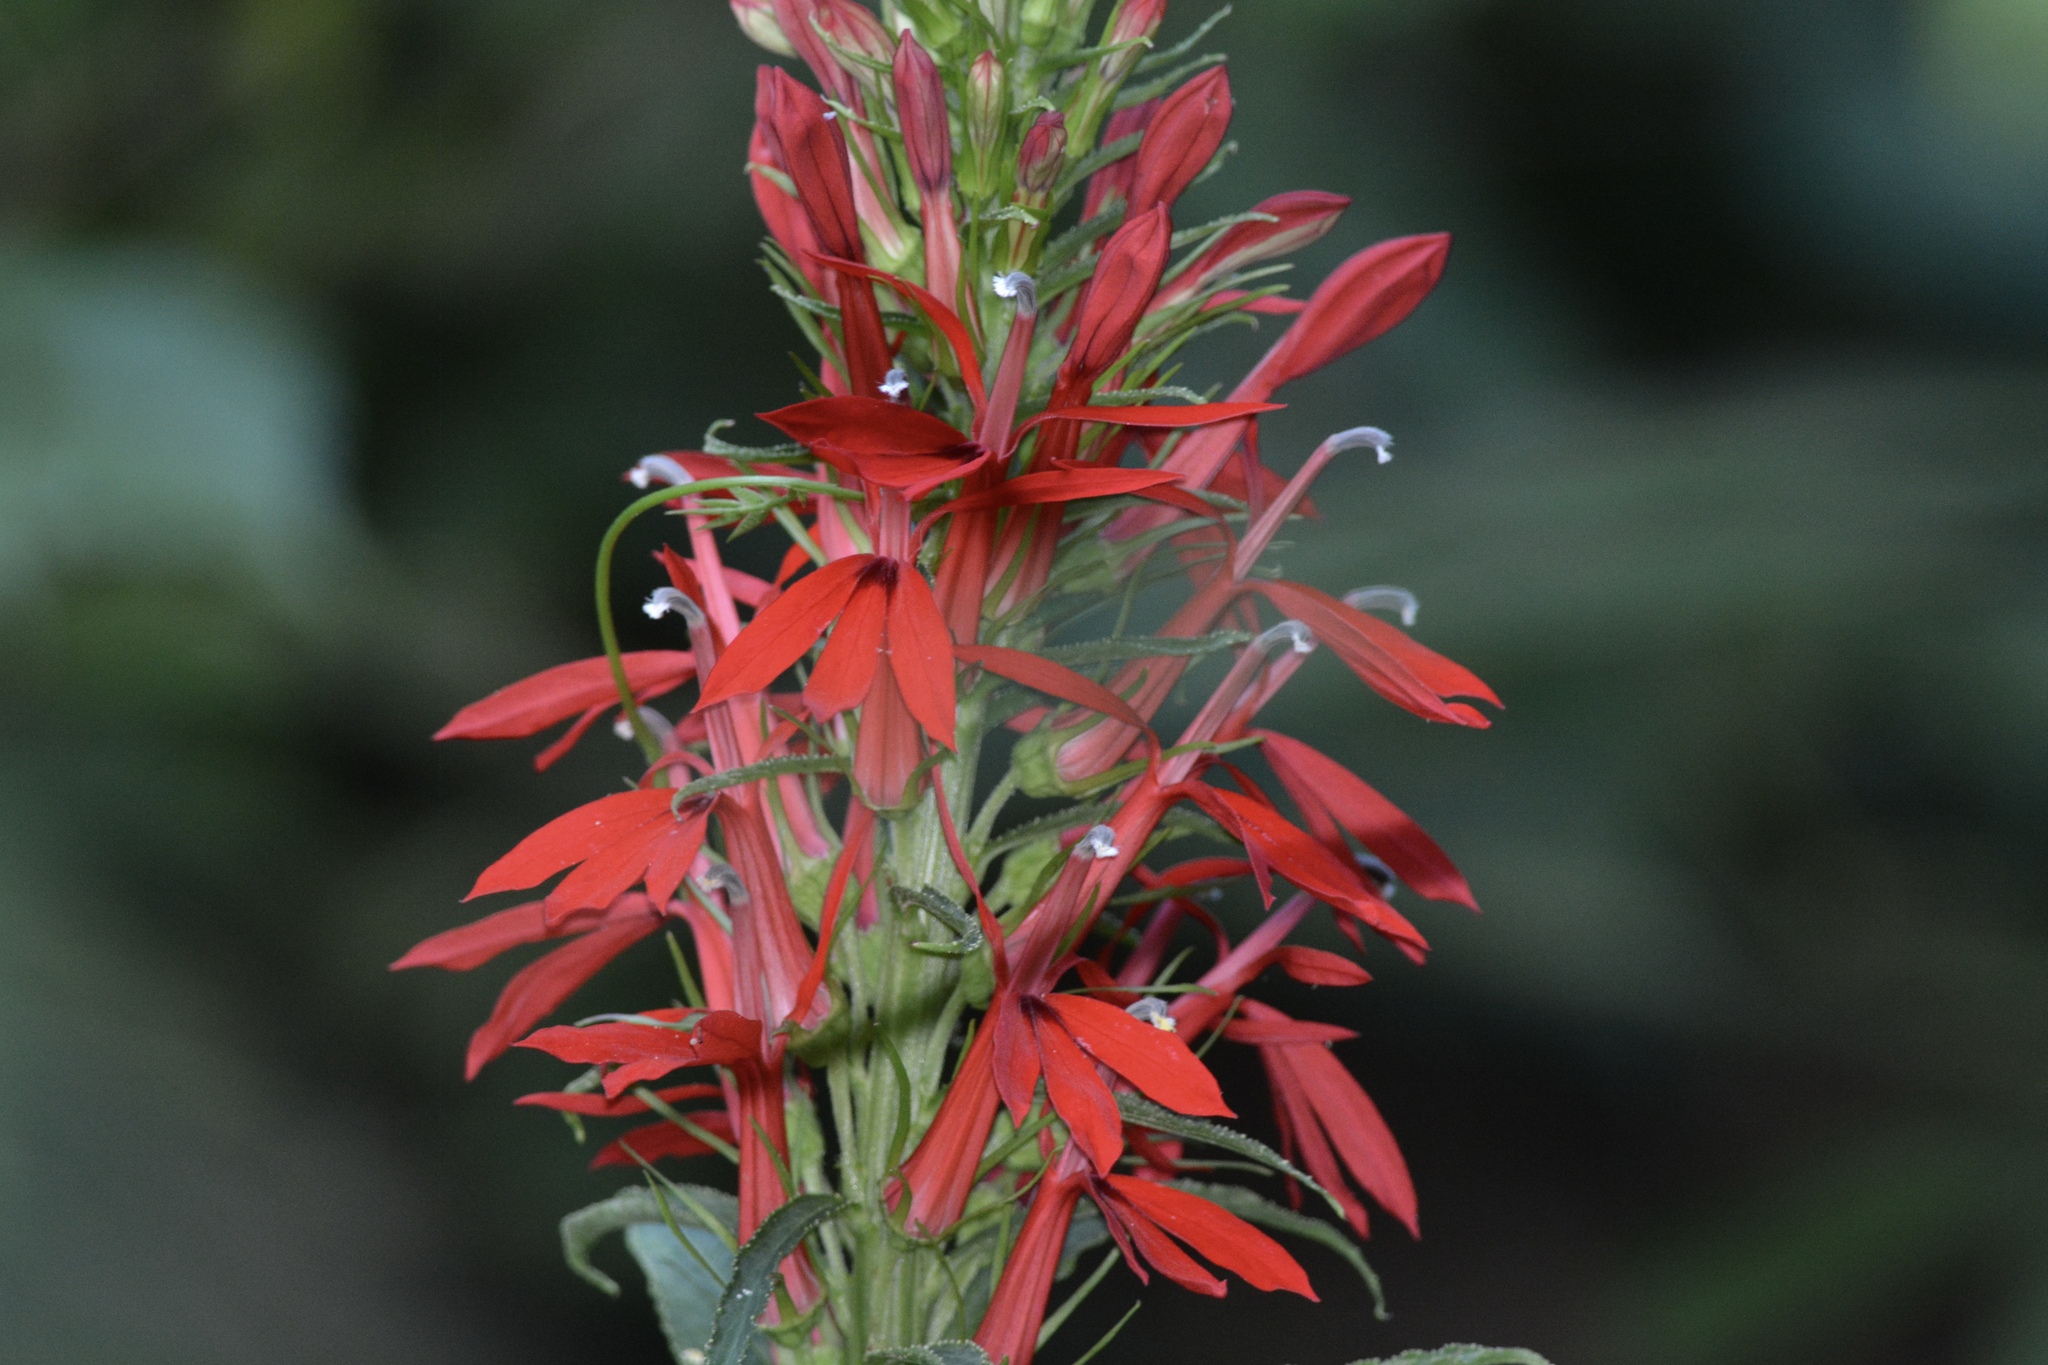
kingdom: Plantae
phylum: Tracheophyta
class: Magnoliopsida
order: Asterales
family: Campanulaceae
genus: Lobelia
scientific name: Lobelia cardinalis
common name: Cardinal flower
